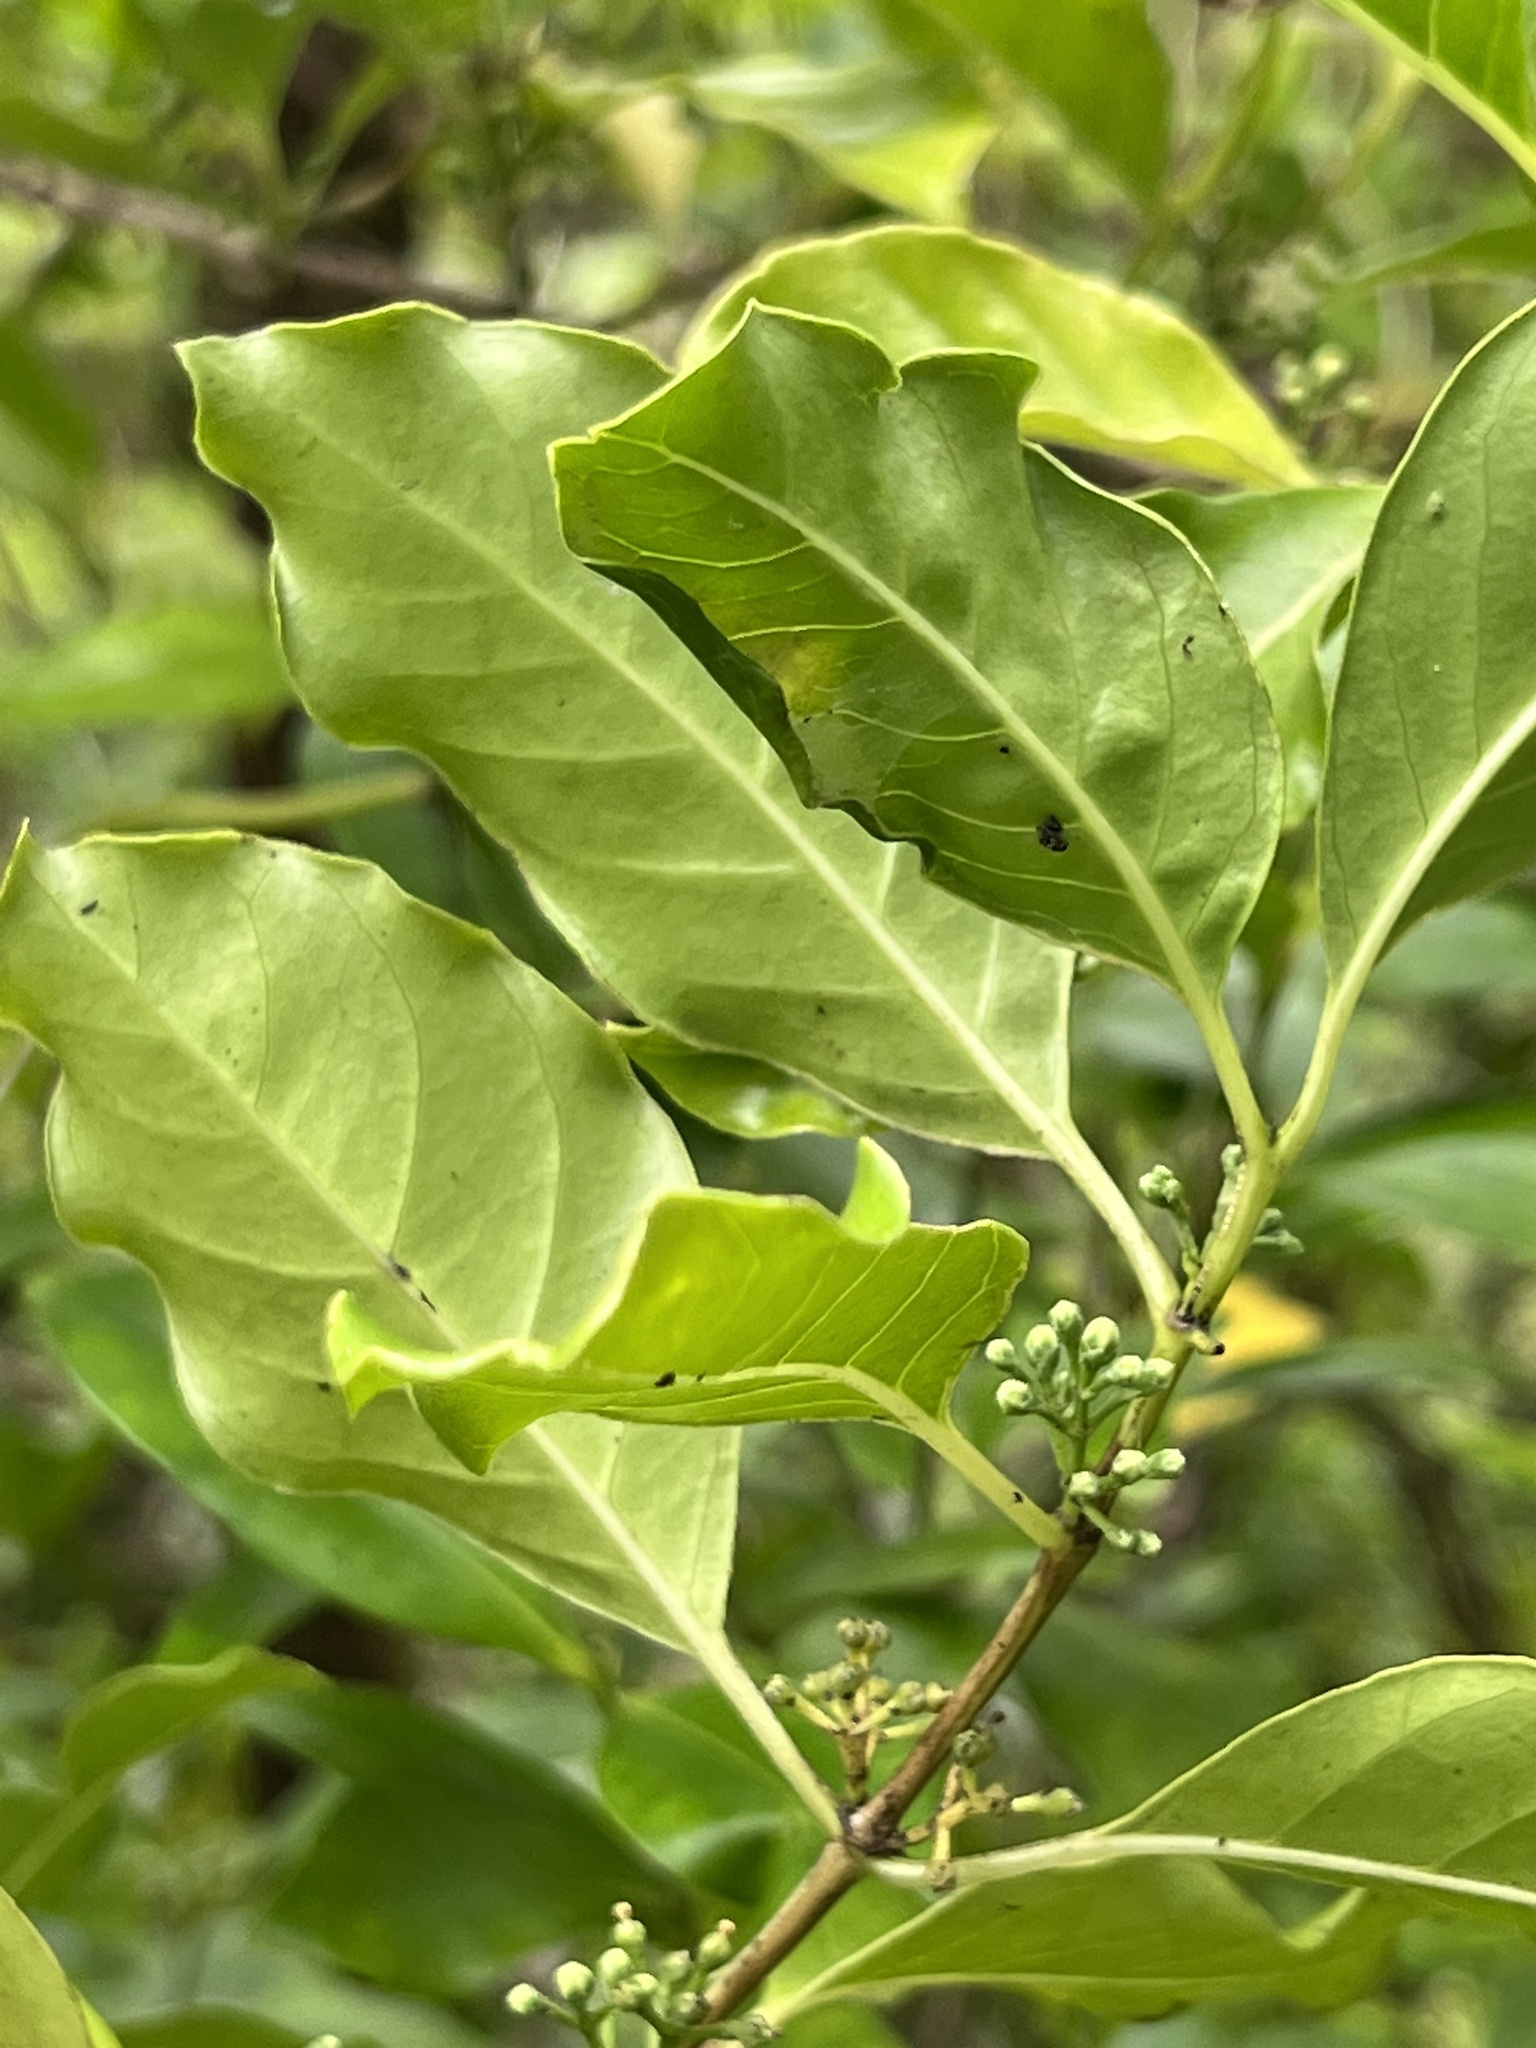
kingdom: Plantae
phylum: Tracheophyta
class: Magnoliopsida
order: Gentianales
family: Loganiaceae
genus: Geniostoma
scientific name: Geniostoma rarotongense
